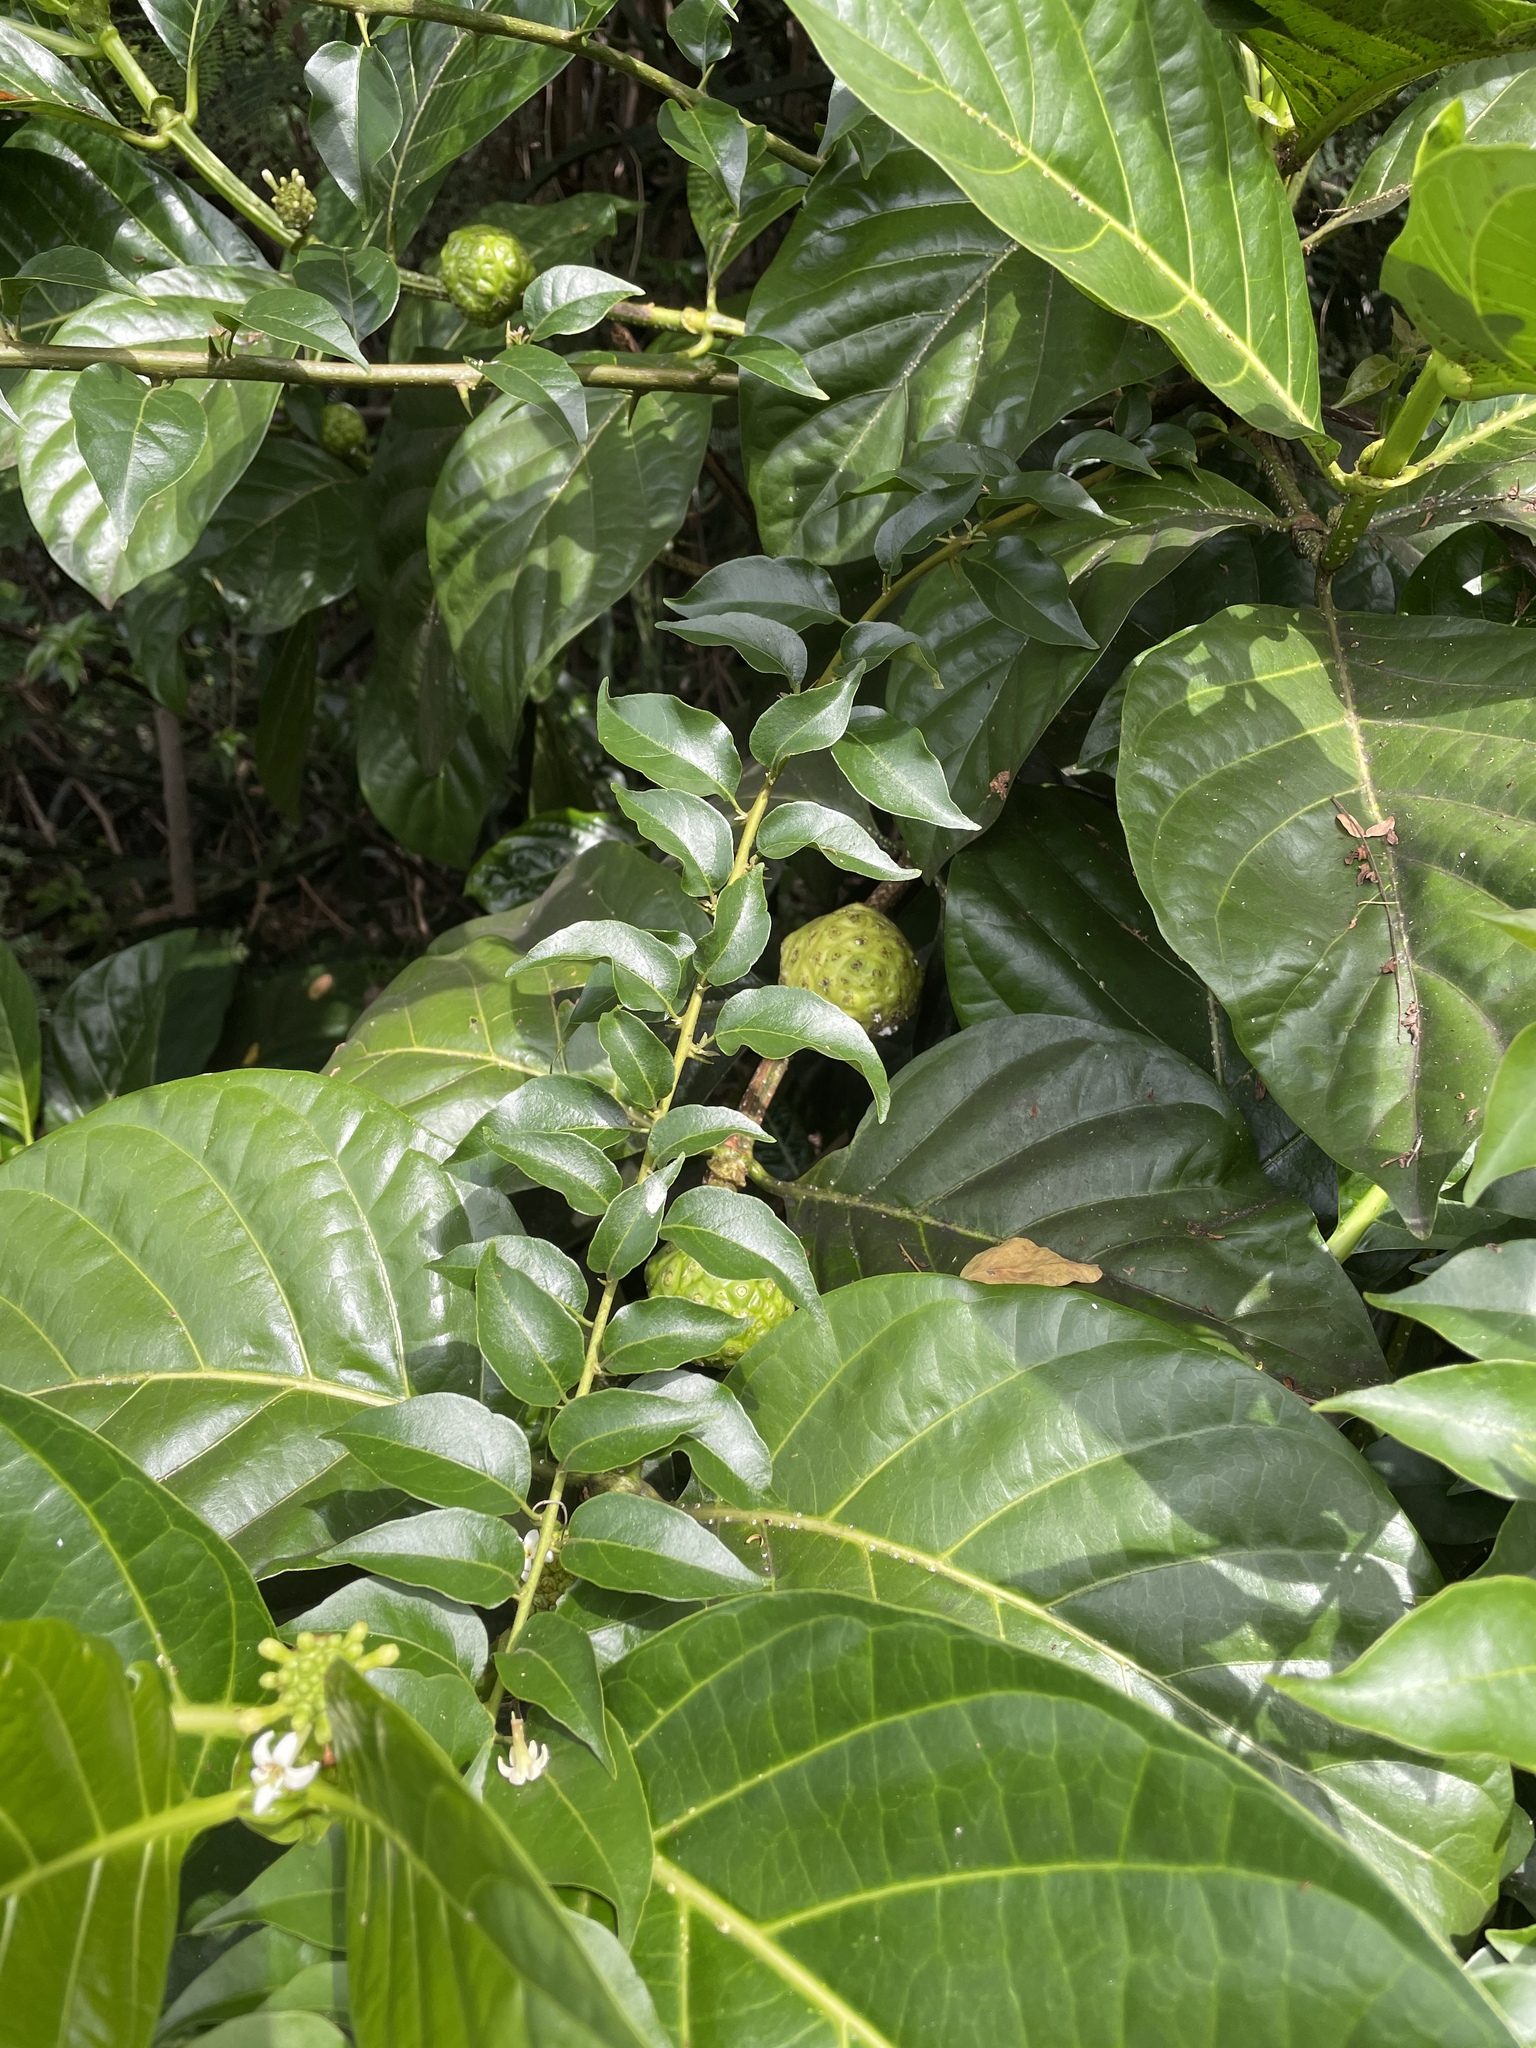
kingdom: Plantae
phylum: Tracheophyta
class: Magnoliopsida
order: Gentianales
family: Rubiaceae
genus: Morinda
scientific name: Morinda citrifolia
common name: Indian-mulberry
